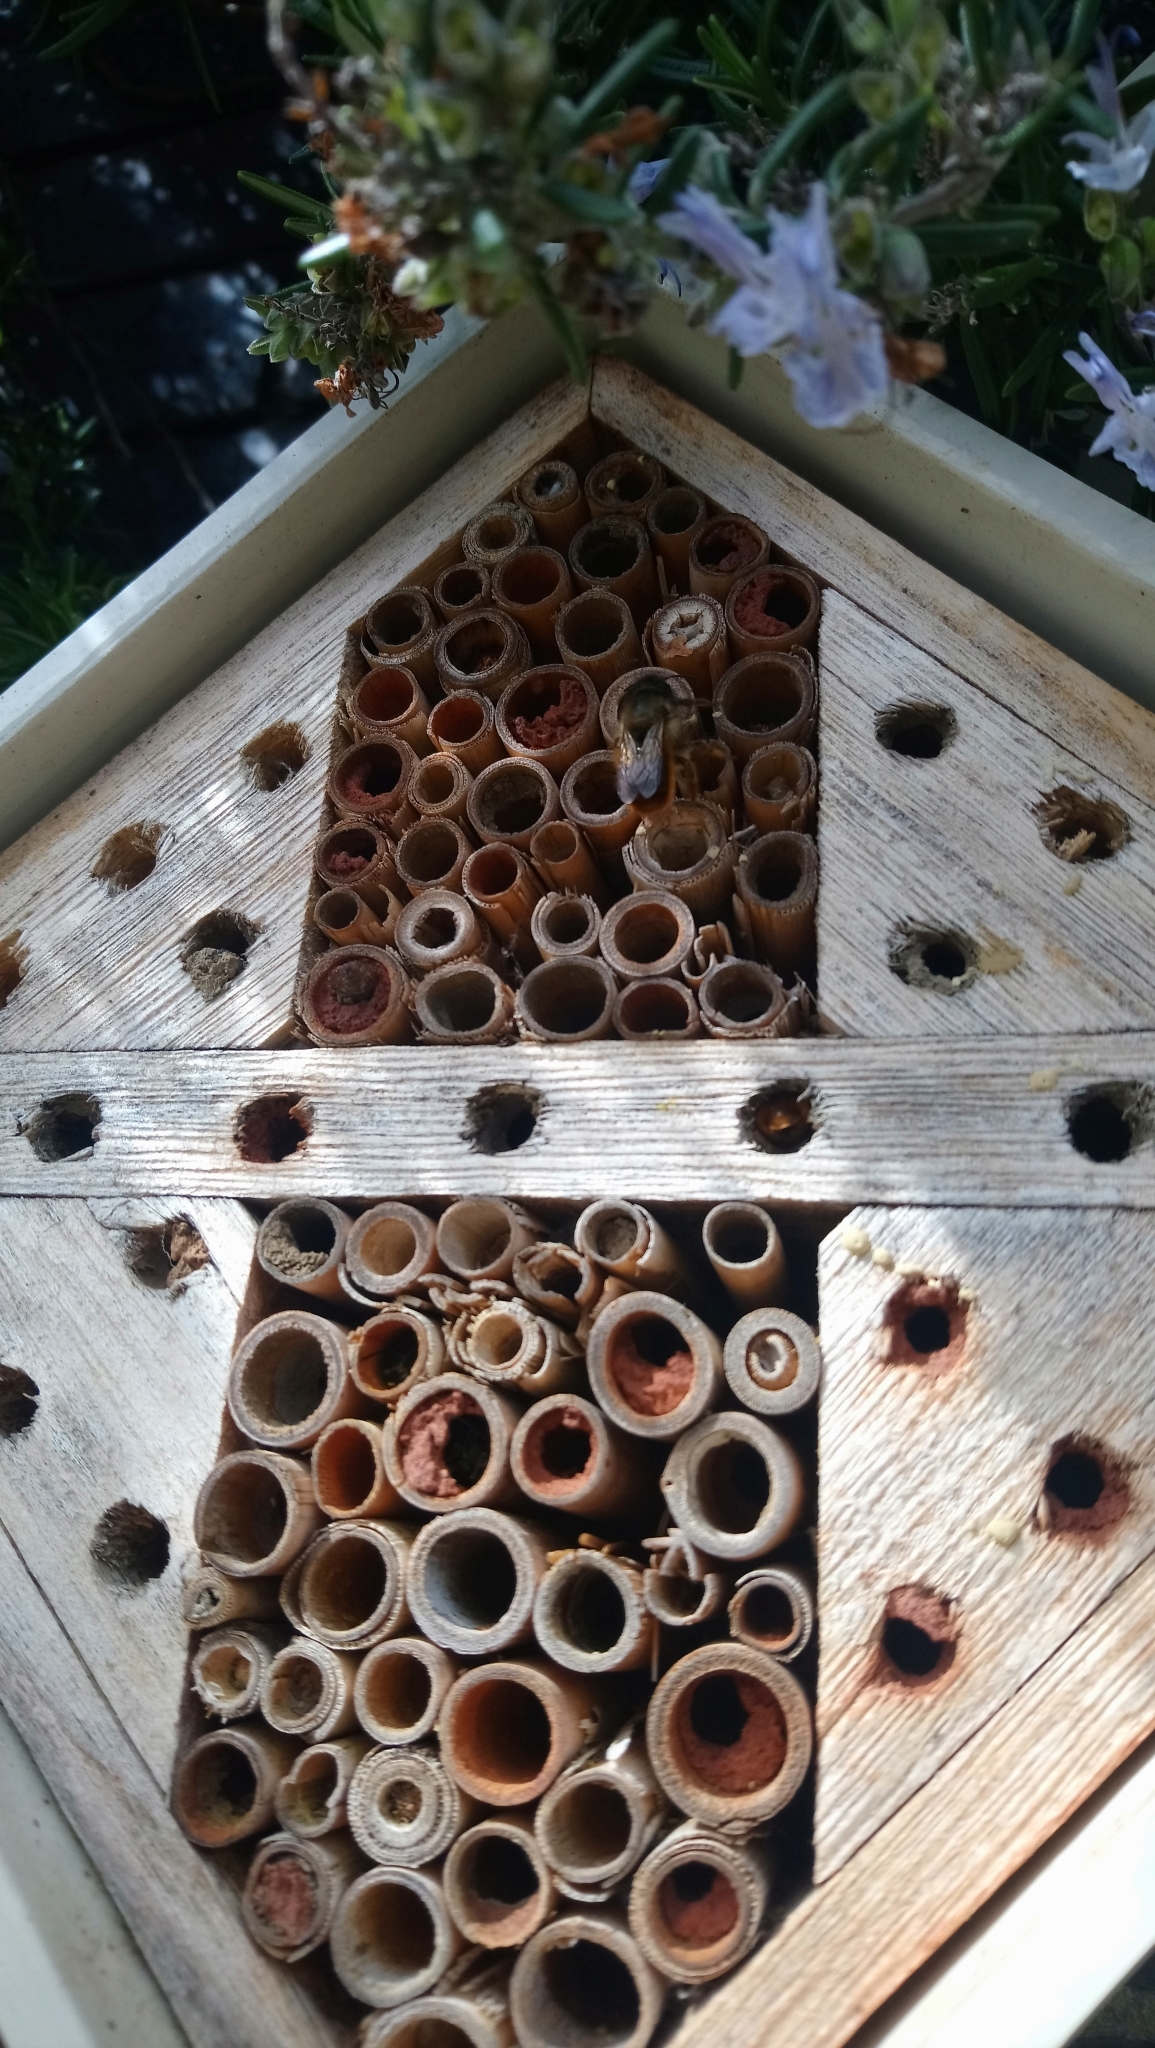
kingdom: Animalia
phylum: Arthropoda
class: Insecta
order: Hymenoptera
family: Megachilidae
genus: Osmia
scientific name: Osmia bicornis
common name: Red mason bee
